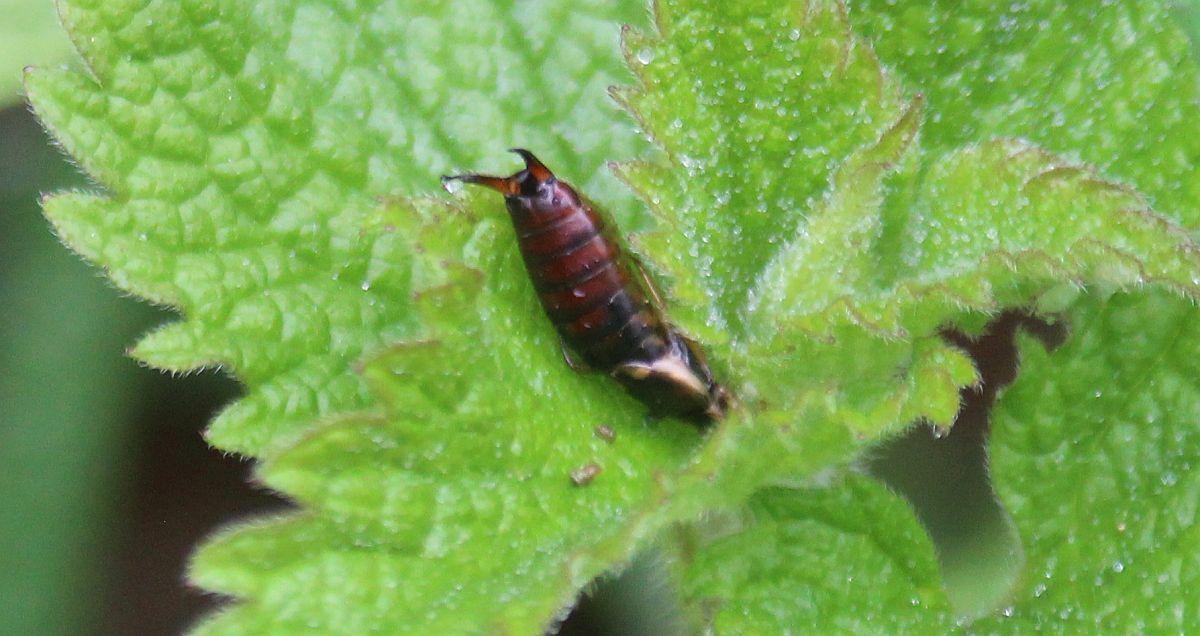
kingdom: Animalia
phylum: Arthropoda
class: Insecta
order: Dermaptera
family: Forficulidae
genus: Forficula
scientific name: Forficula
